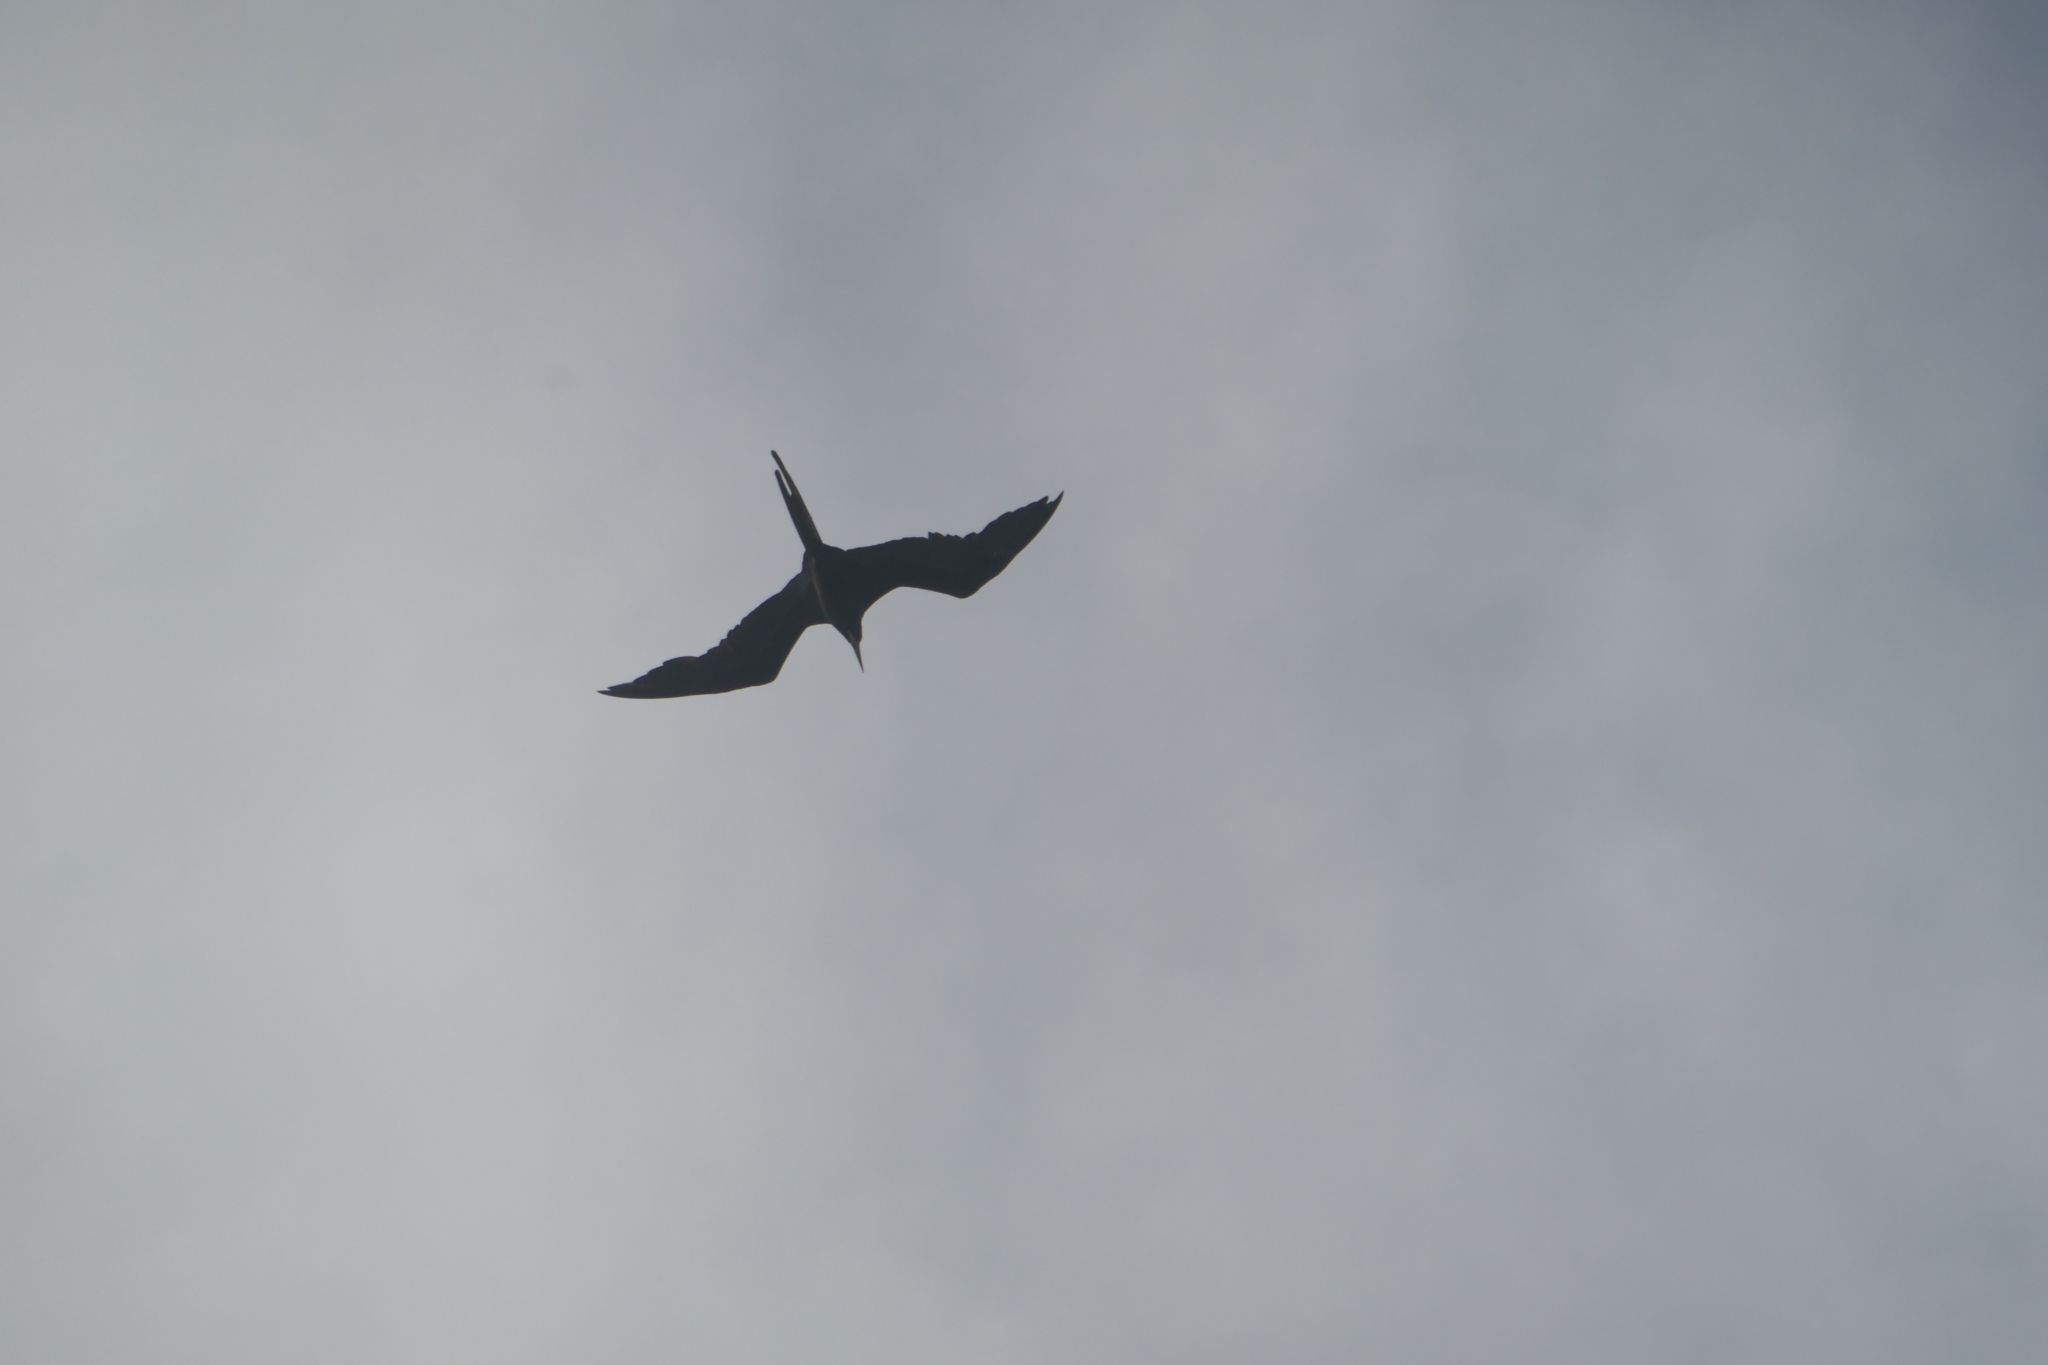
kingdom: Animalia
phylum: Chordata
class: Aves
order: Suliformes
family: Fregatidae
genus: Fregata
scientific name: Fregata magnificens
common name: Magnificent frigatebird
